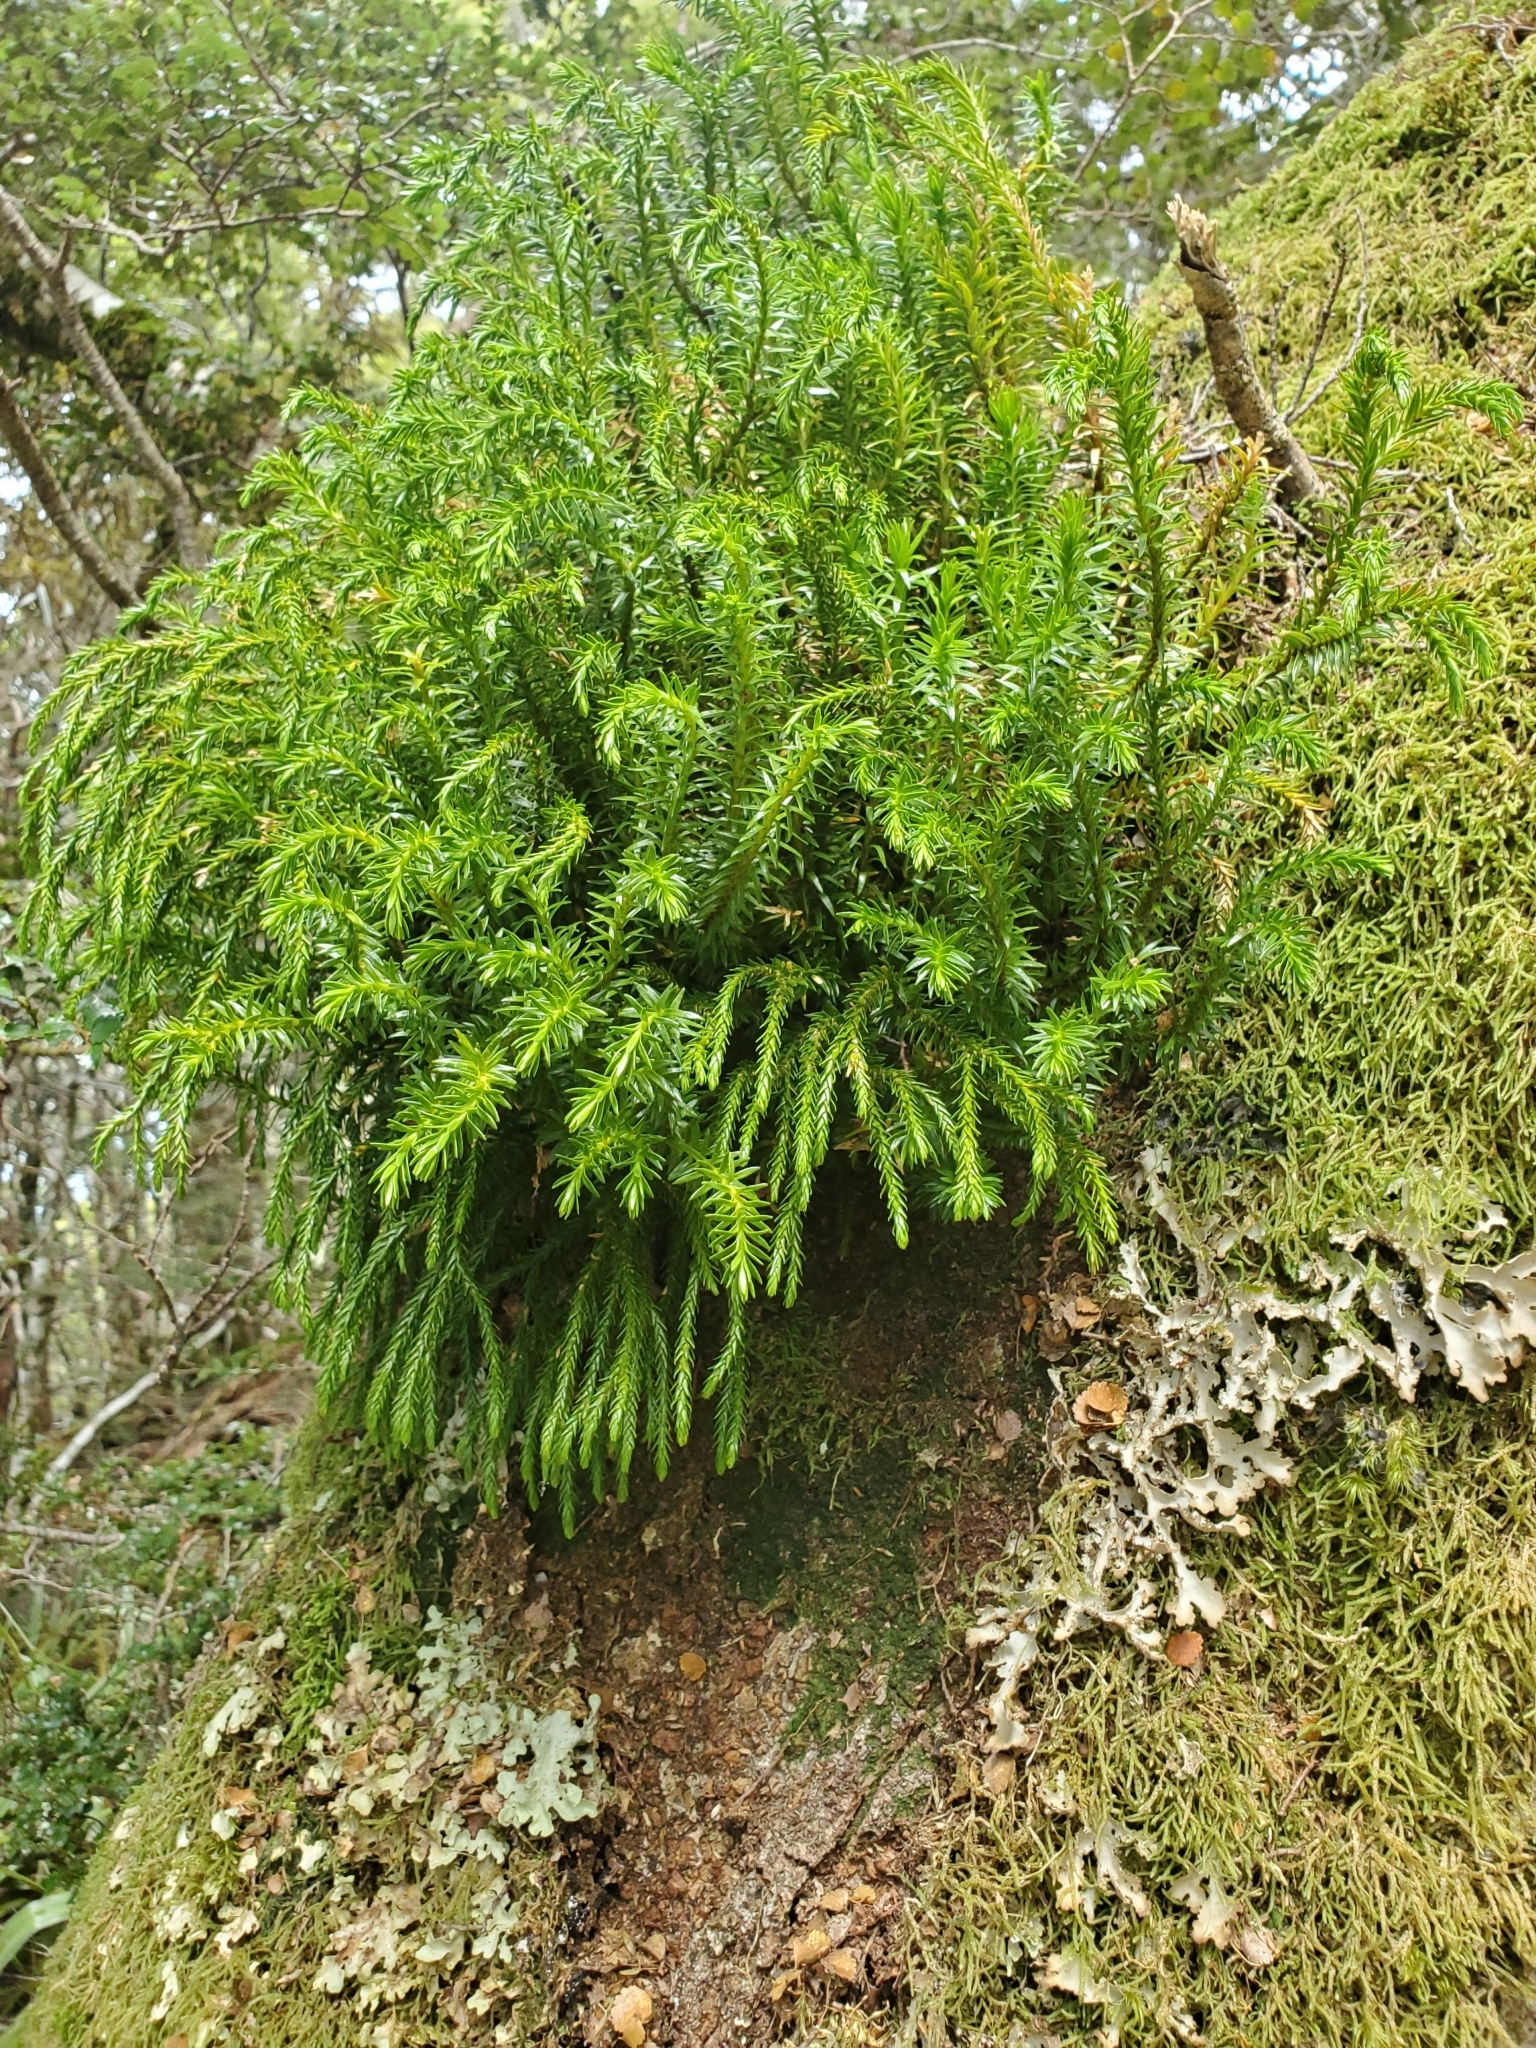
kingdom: Plantae
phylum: Tracheophyta
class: Lycopodiopsida
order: Lycopodiales
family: Lycopodiaceae
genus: Phlegmariurus
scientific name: Phlegmariurus varius
